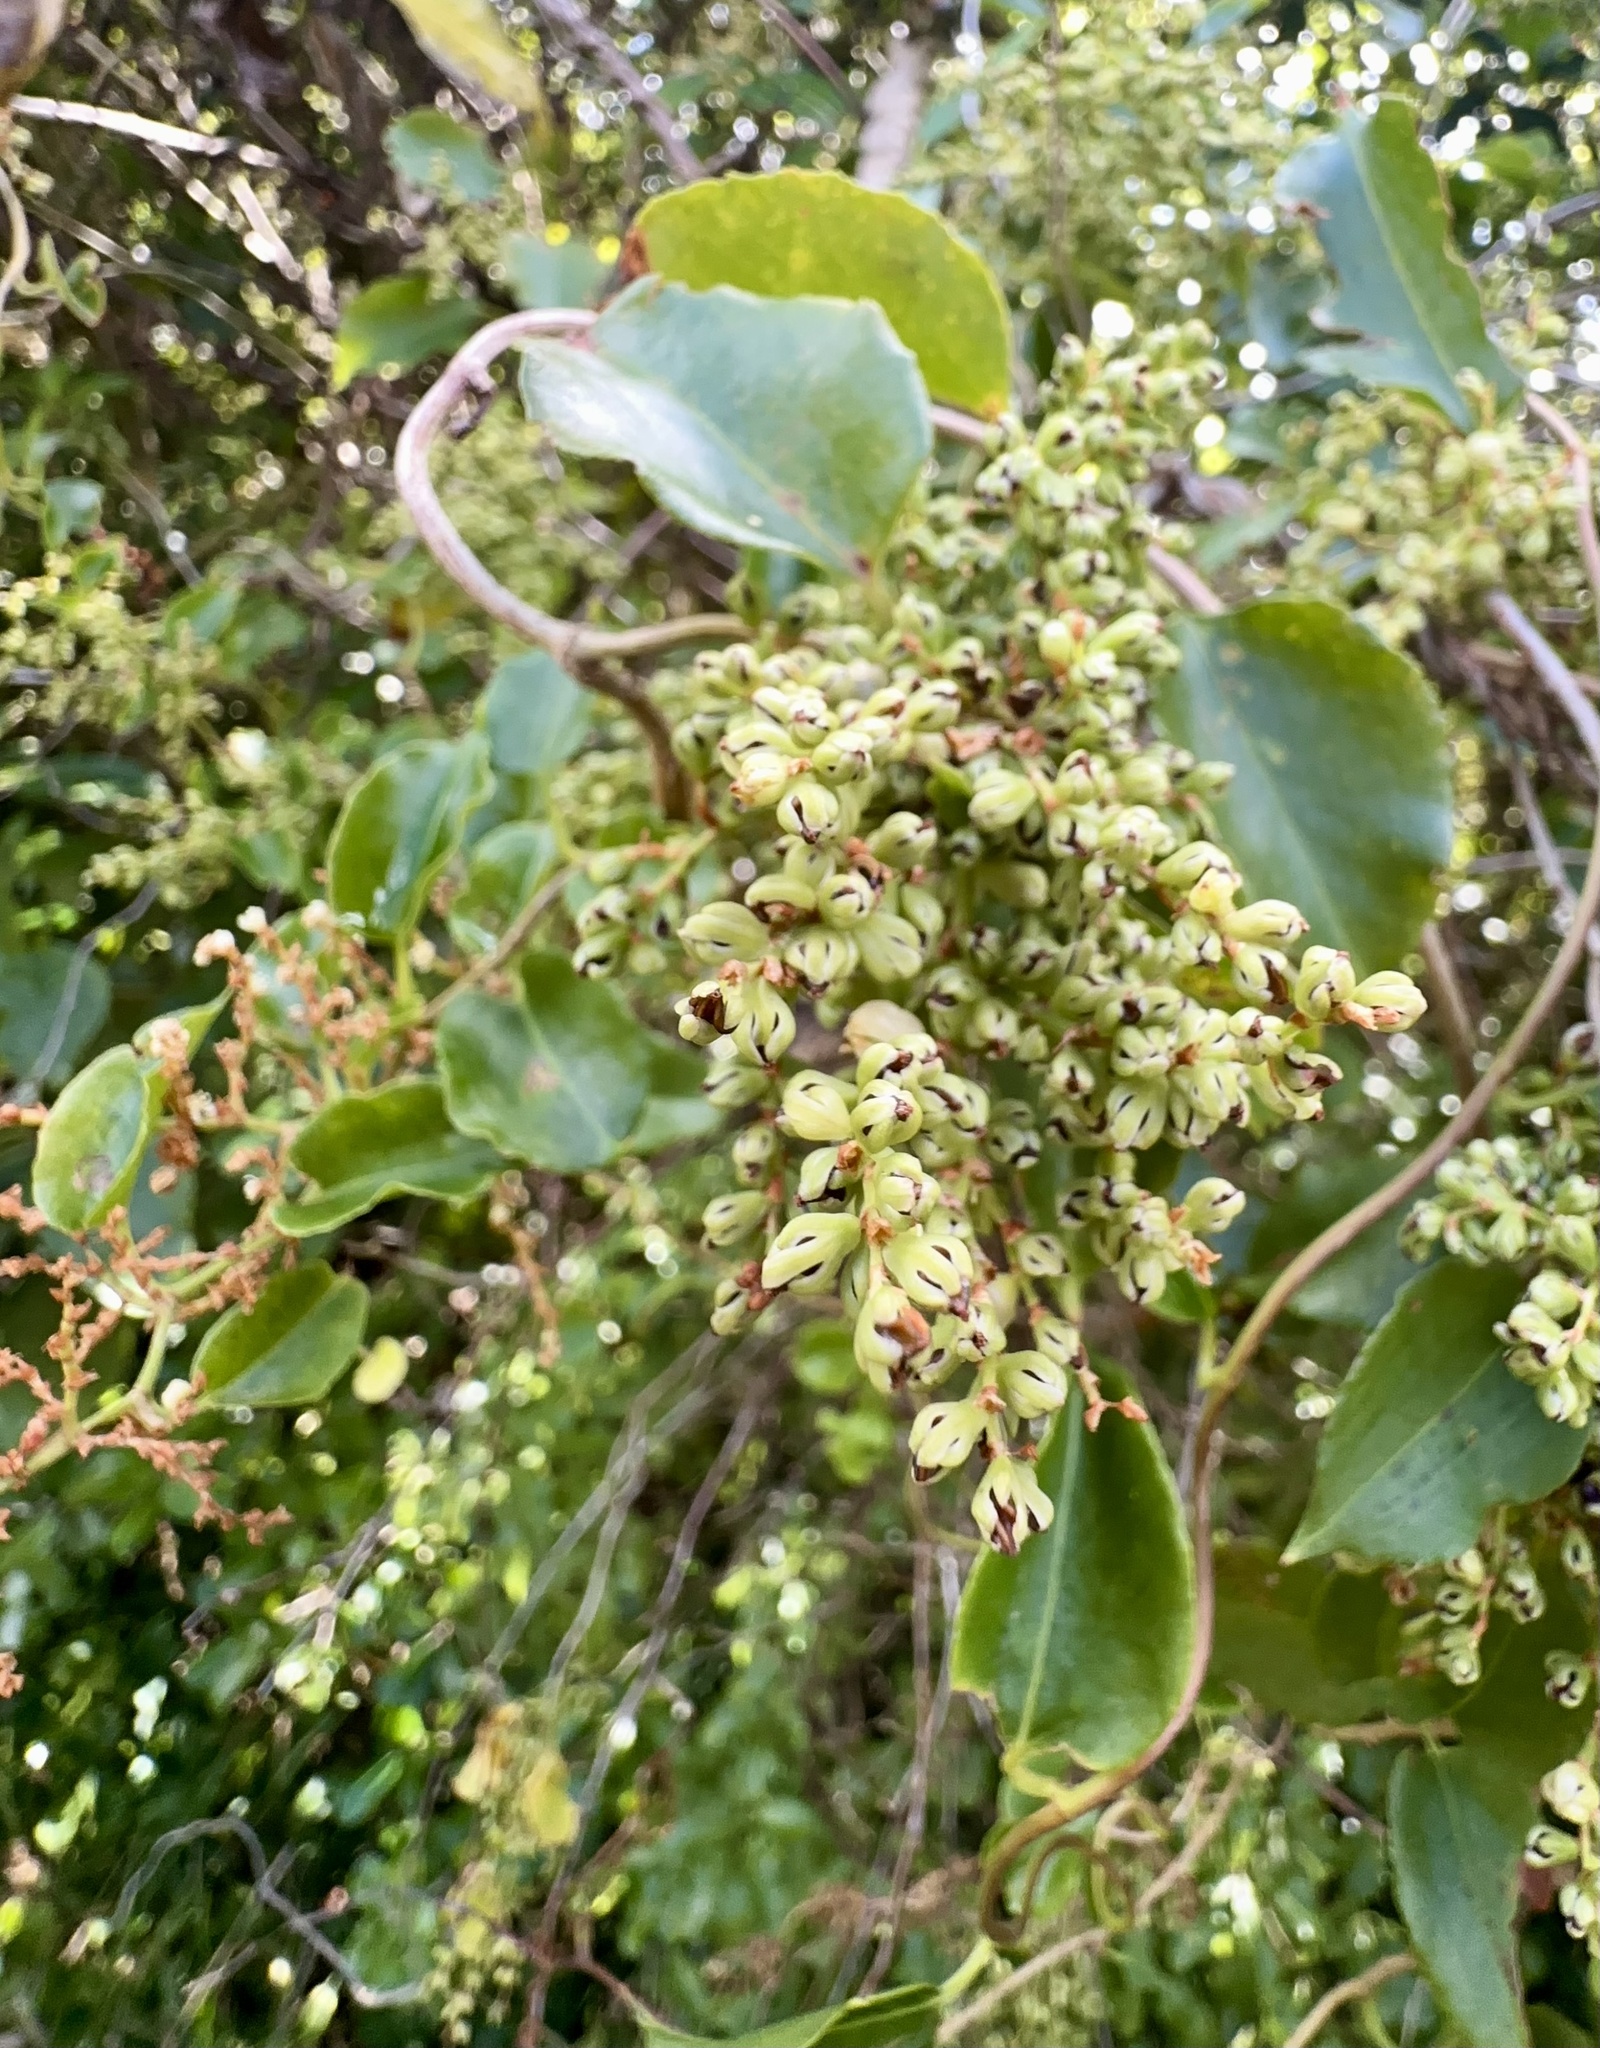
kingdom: Plantae
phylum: Tracheophyta
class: Magnoliopsida
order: Caryophyllales
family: Polygonaceae
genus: Muehlenbeckia
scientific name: Muehlenbeckia australis
